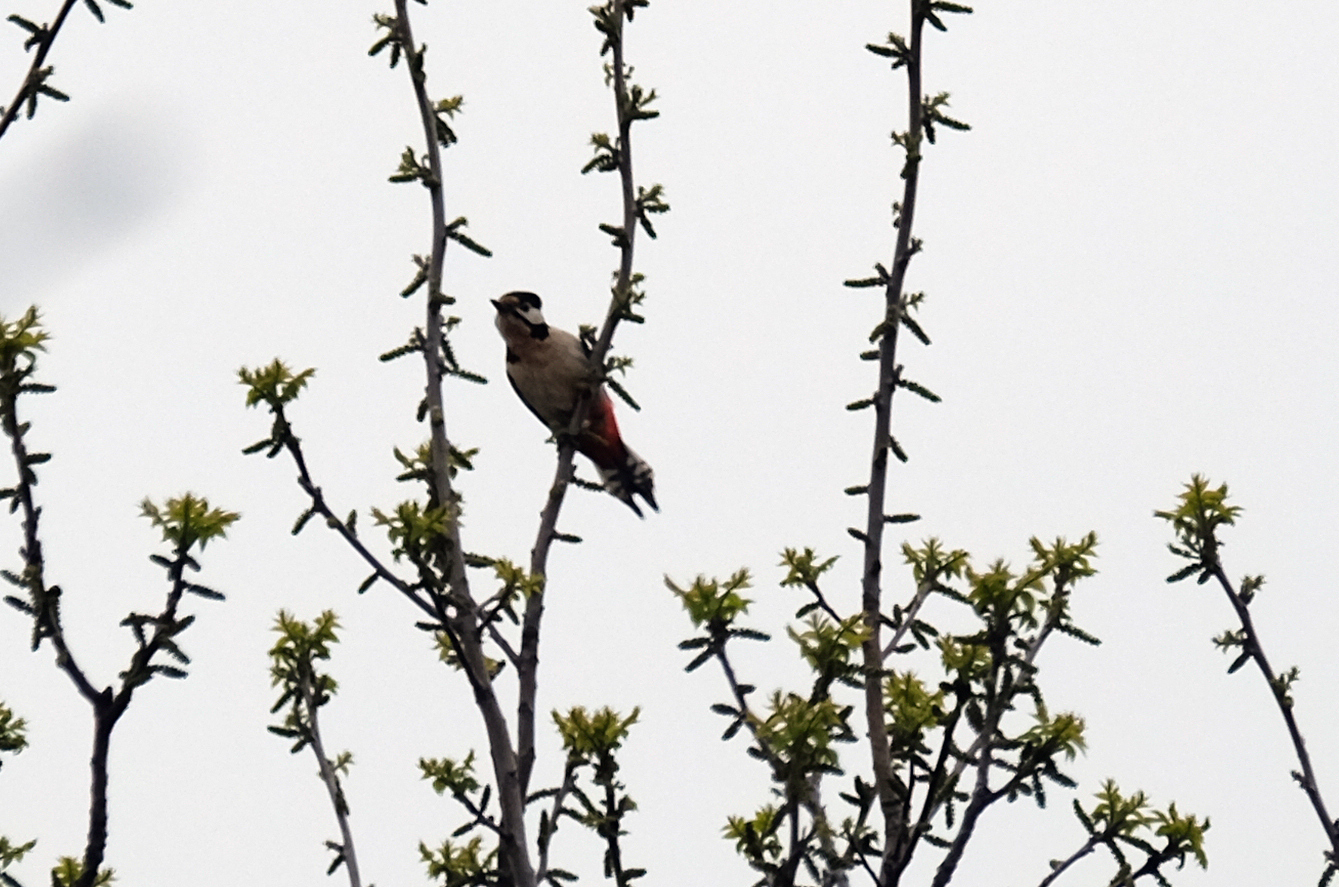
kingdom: Animalia
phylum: Chordata
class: Aves
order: Piciformes
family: Picidae
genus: Dendrocopos
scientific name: Dendrocopos major
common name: Great spotted woodpecker
